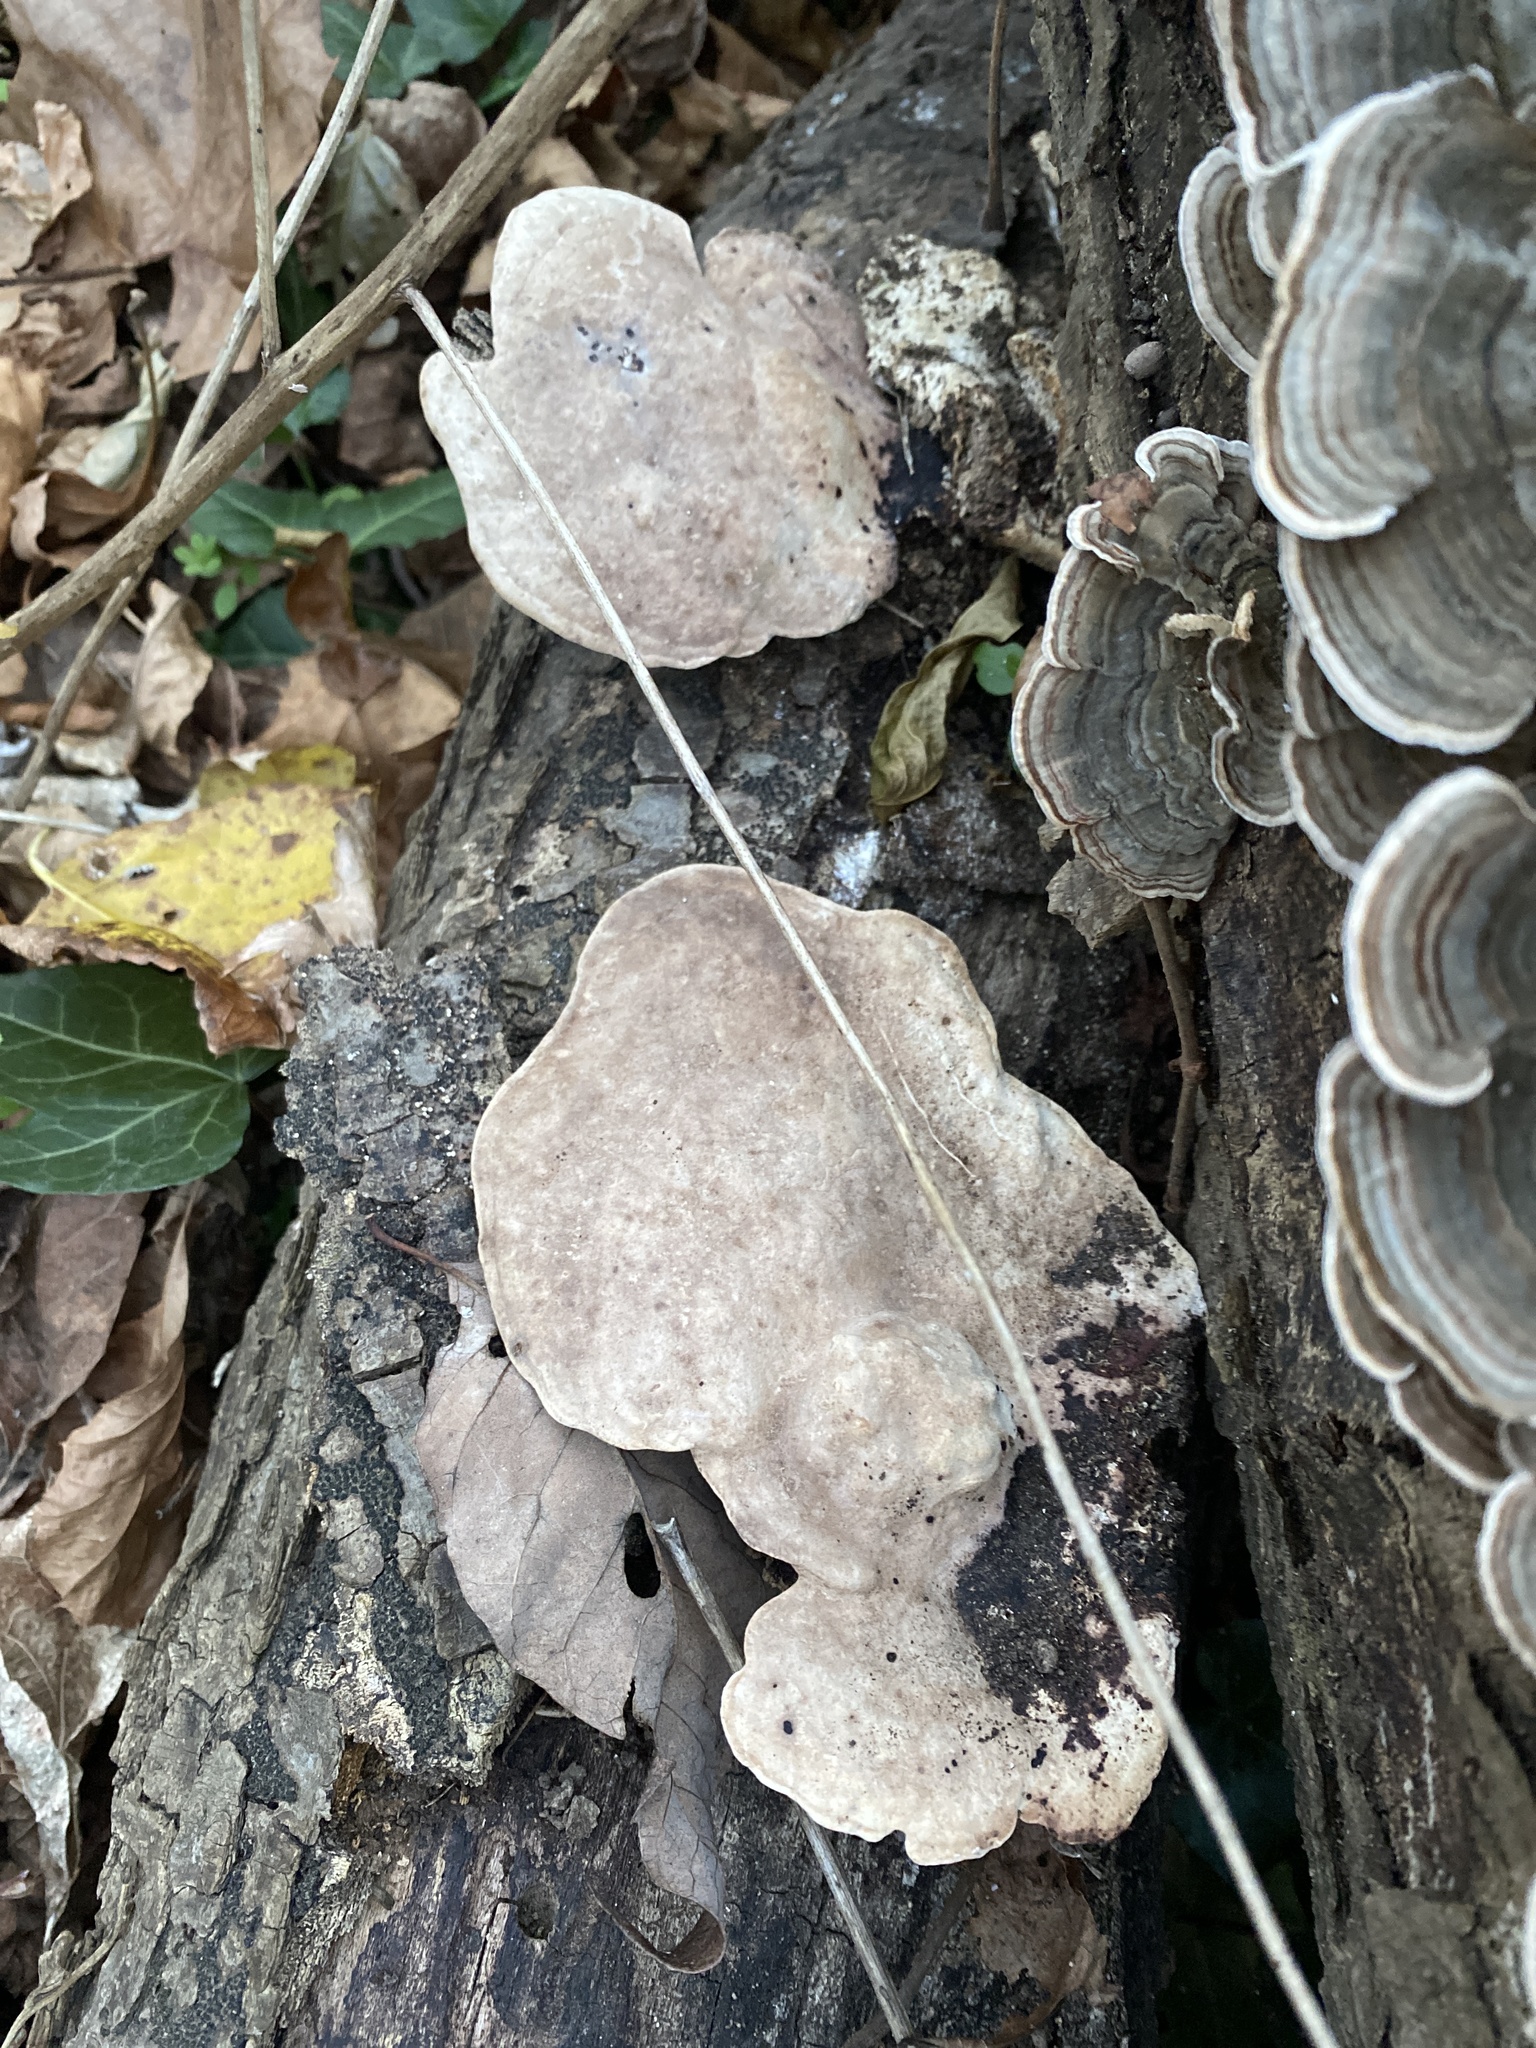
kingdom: Fungi
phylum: Basidiomycota
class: Agaricomycetes
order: Polyporales
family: Polyporaceae
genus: Trametes
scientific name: Trametes
